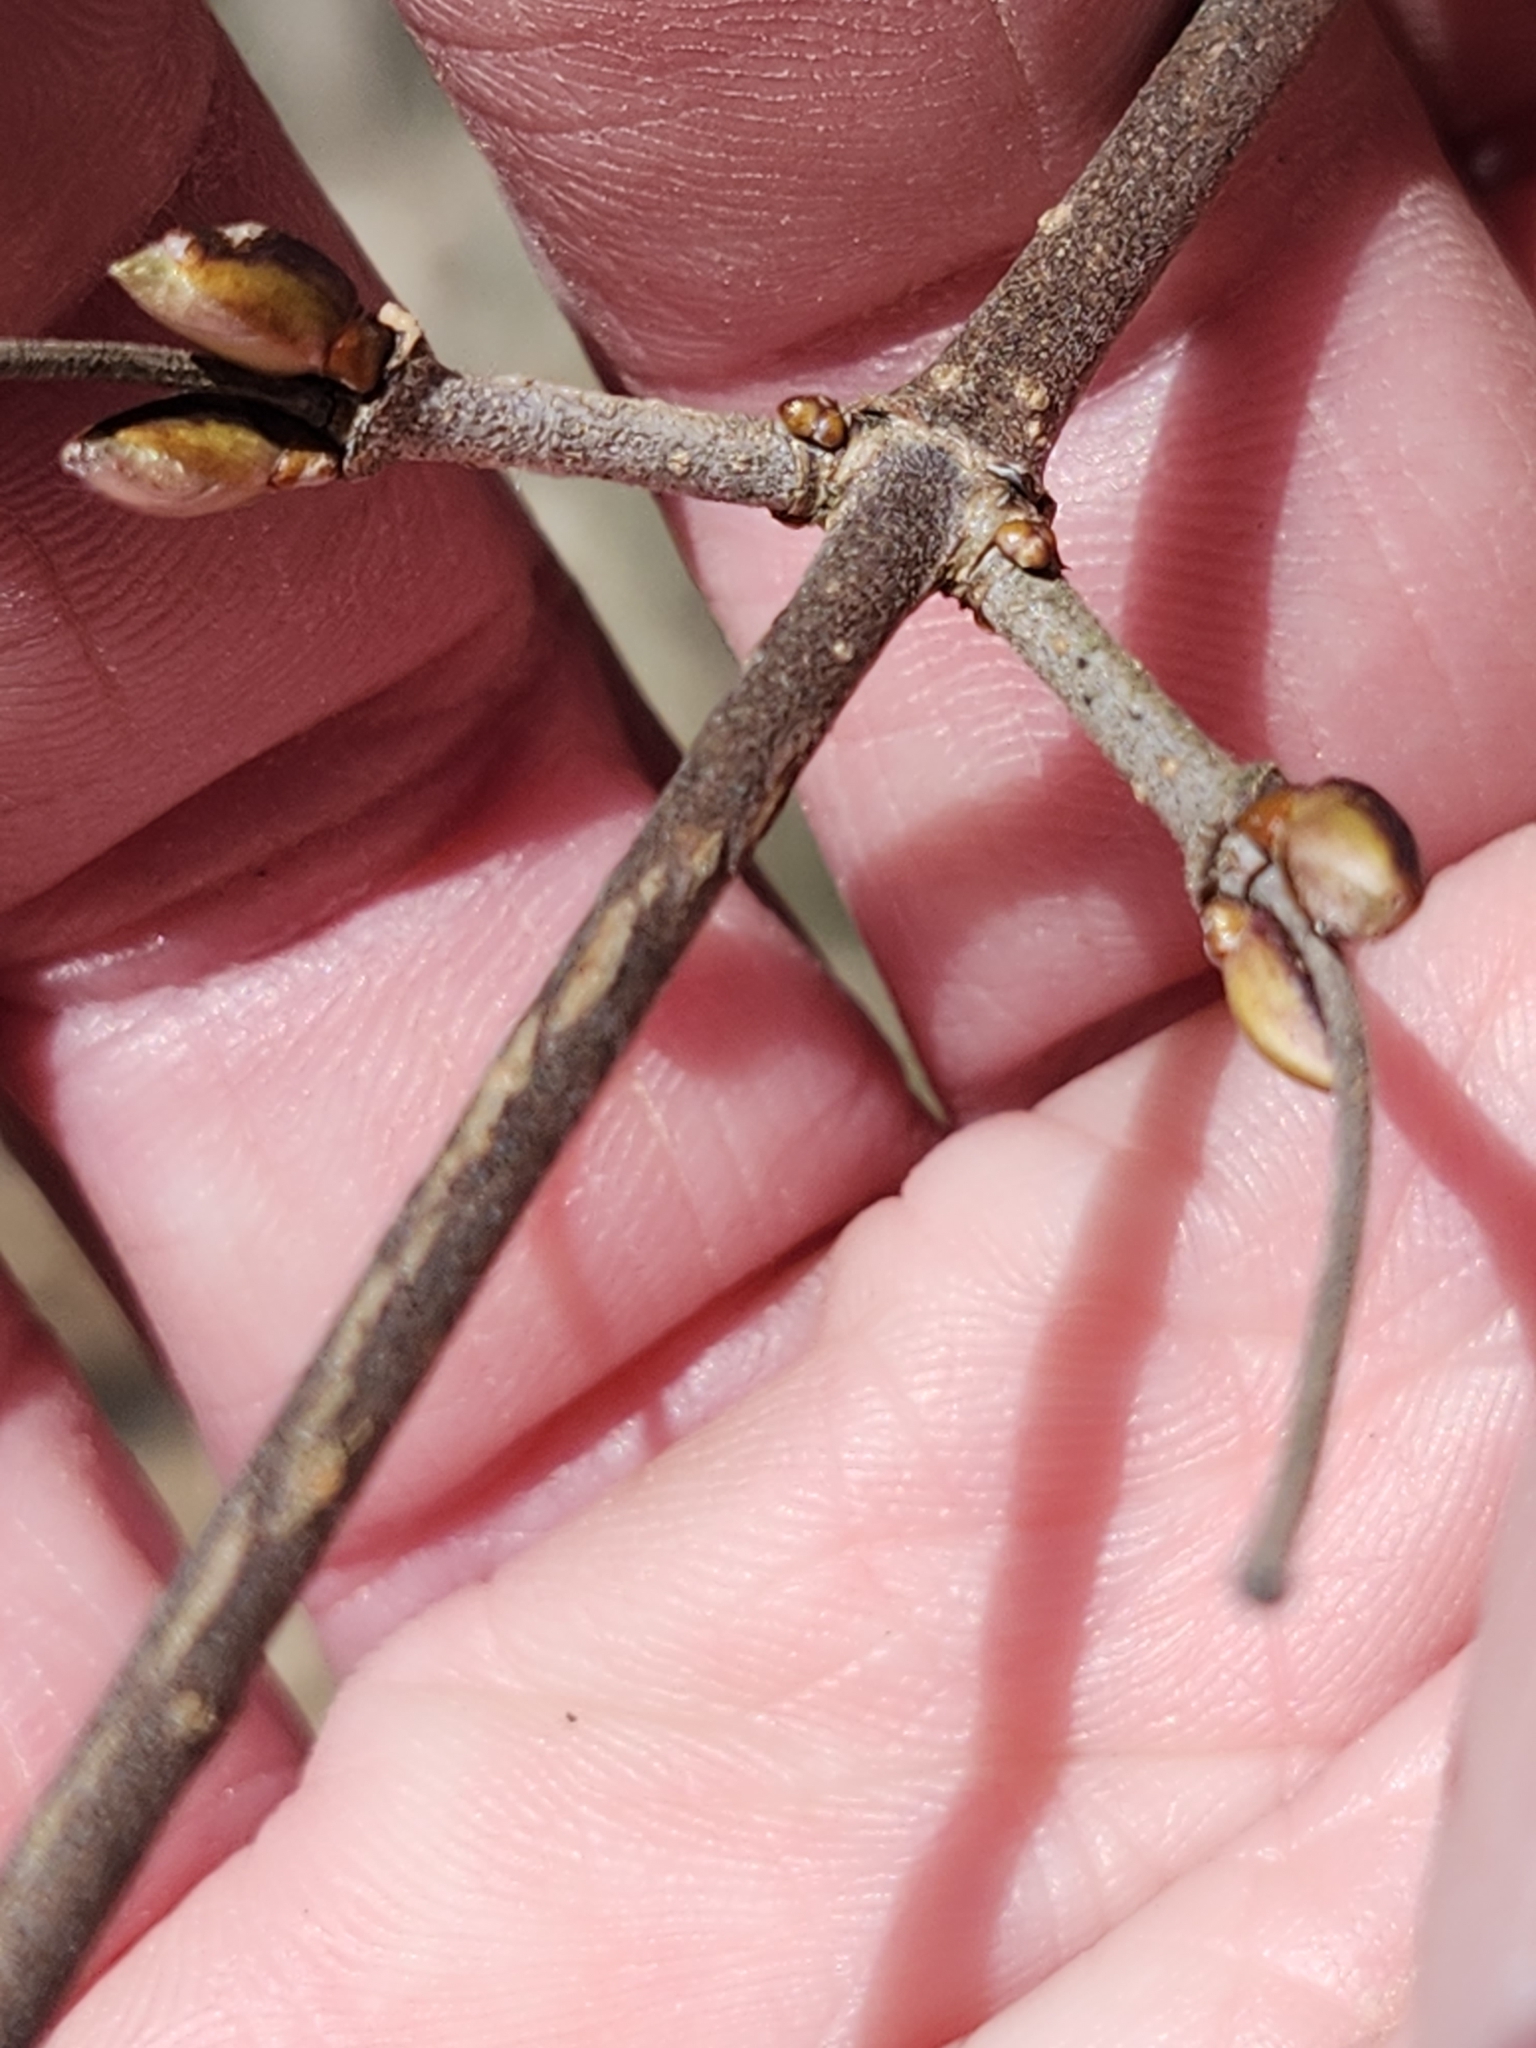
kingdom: Plantae
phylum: Tracheophyta
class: Magnoliopsida
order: Dipsacales
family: Viburnaceae
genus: Viburnum
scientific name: Viburnum acerifolium
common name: Dockmackie
